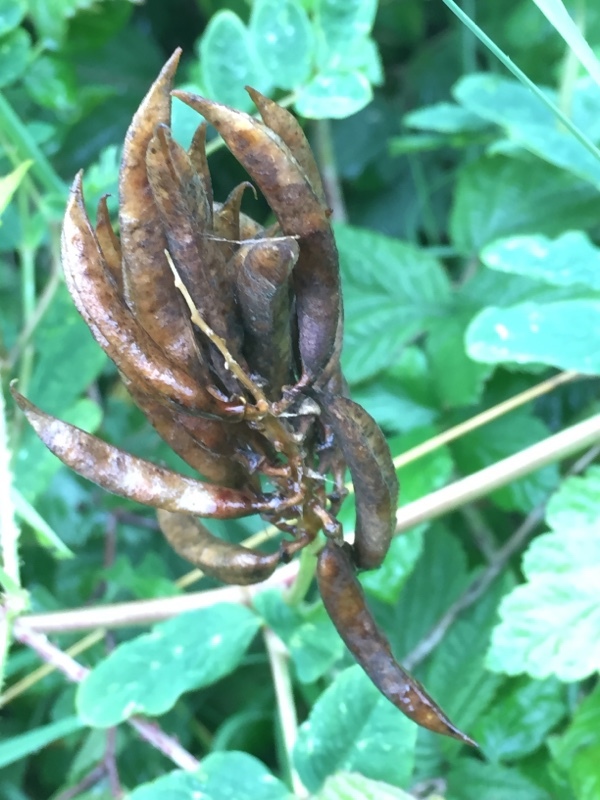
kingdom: Plantae
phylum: Tracheophyta
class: Magnoliopsida
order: Fabales
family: Fabaceae
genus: Astragalus
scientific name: Astragalus glycyphyllos
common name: Wild liquorice
